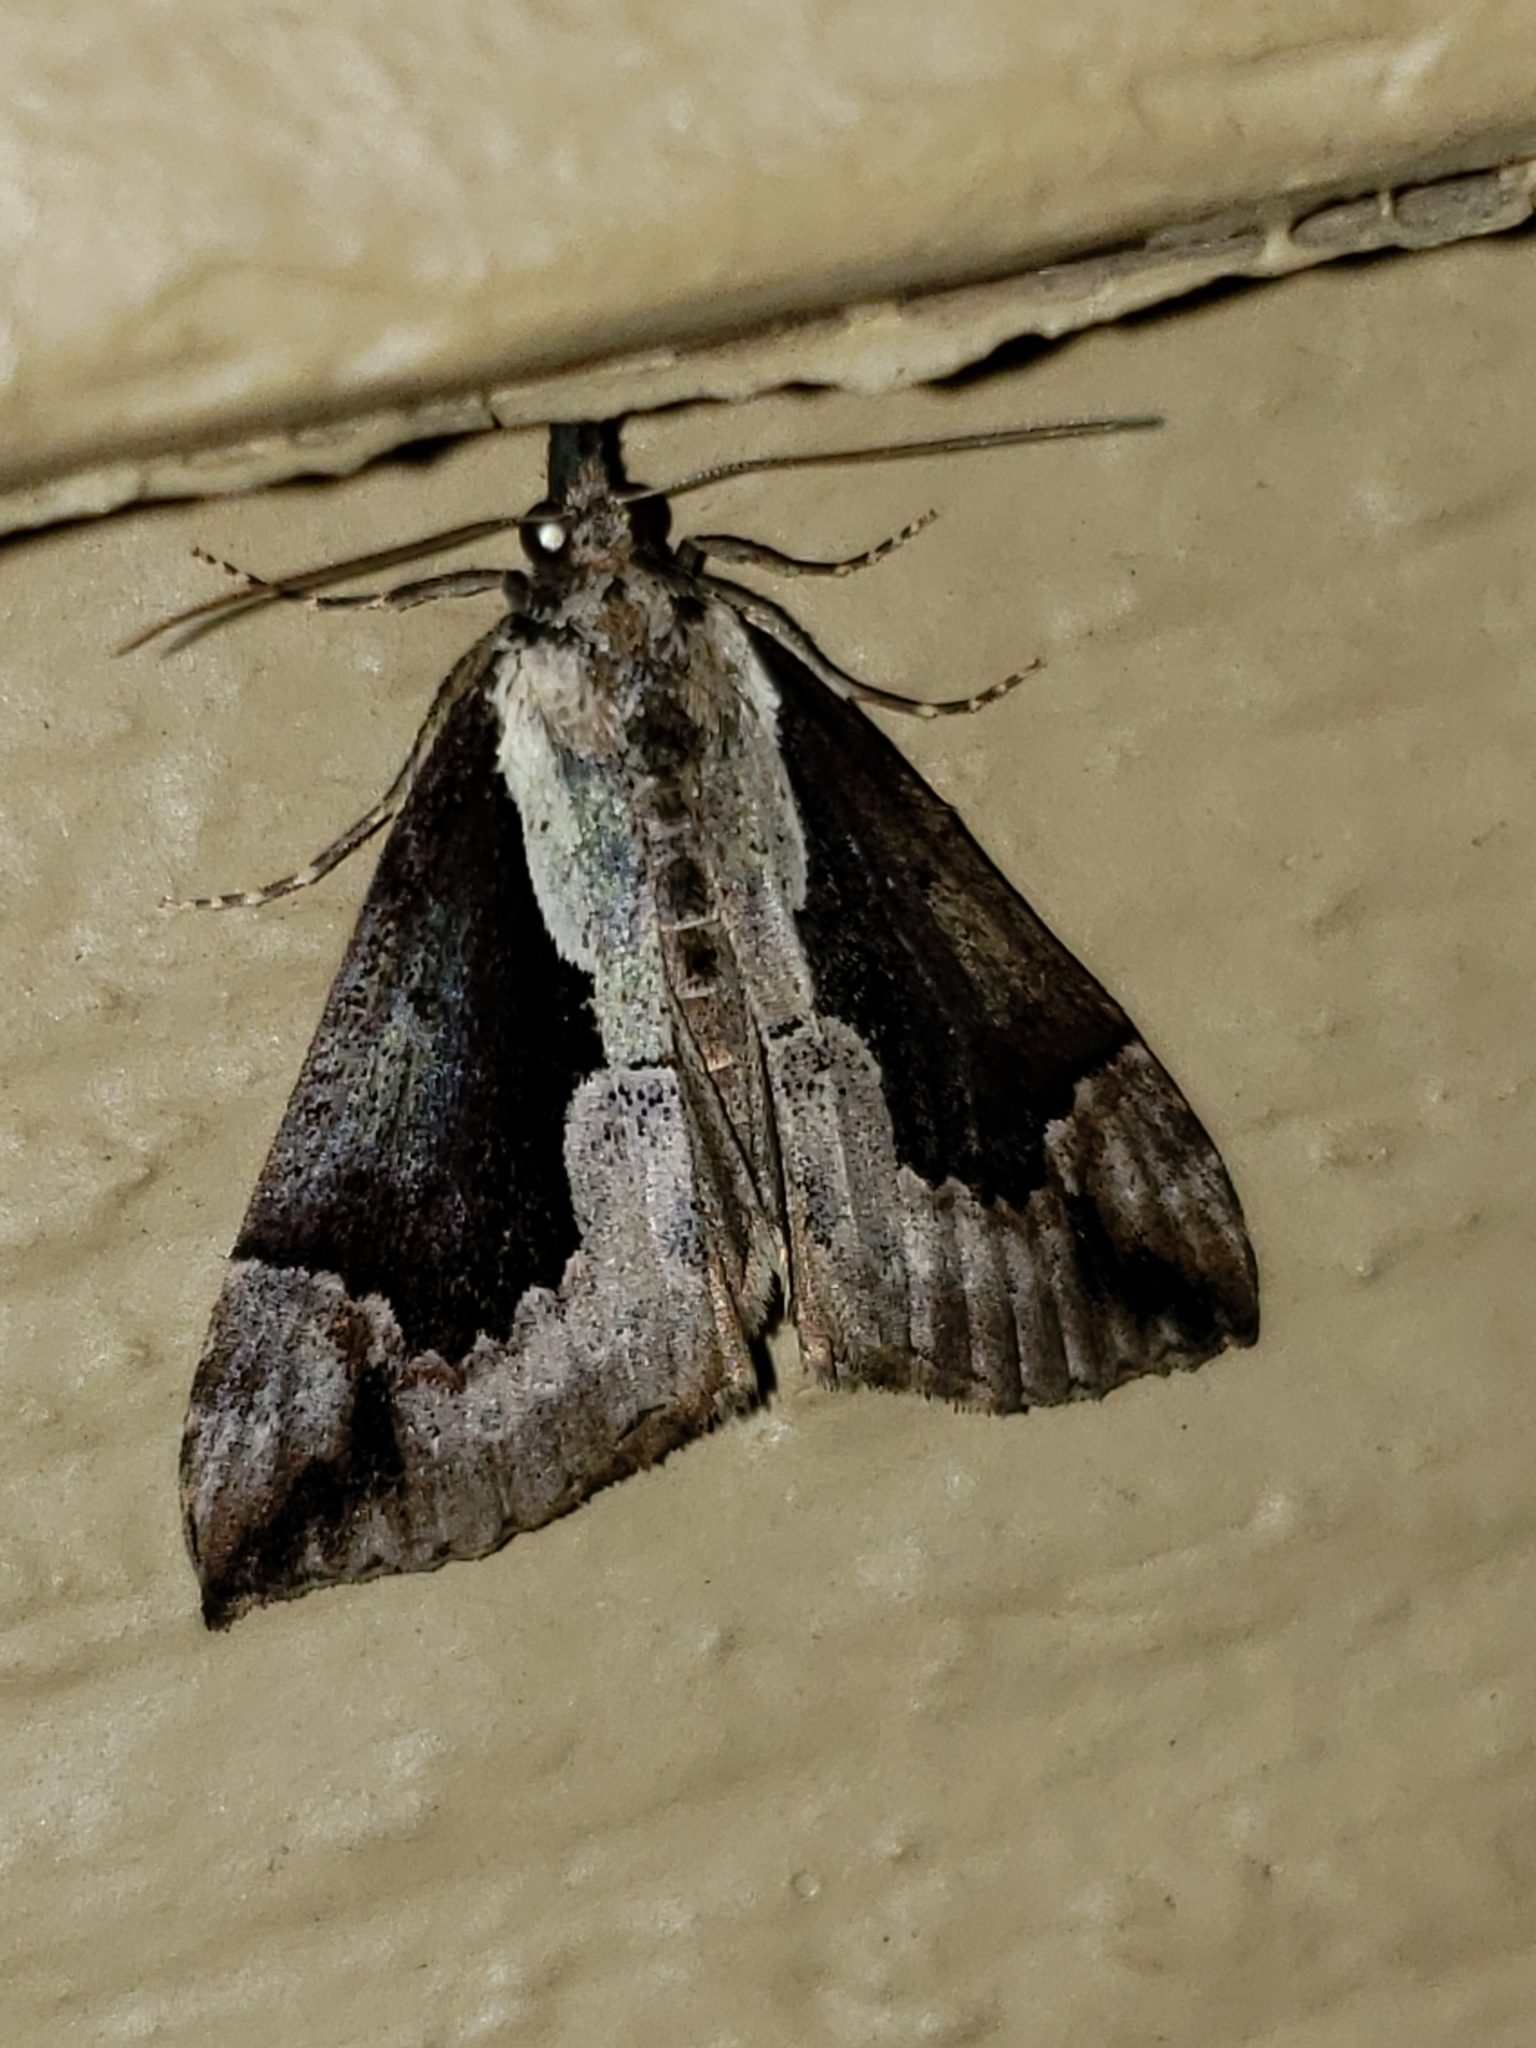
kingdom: Animalia
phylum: Arthropoda
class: Insecta
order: Lepidoptera
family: Erebidae
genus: Hypena
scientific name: Hypena baltimoralis
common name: Baltimore snout
